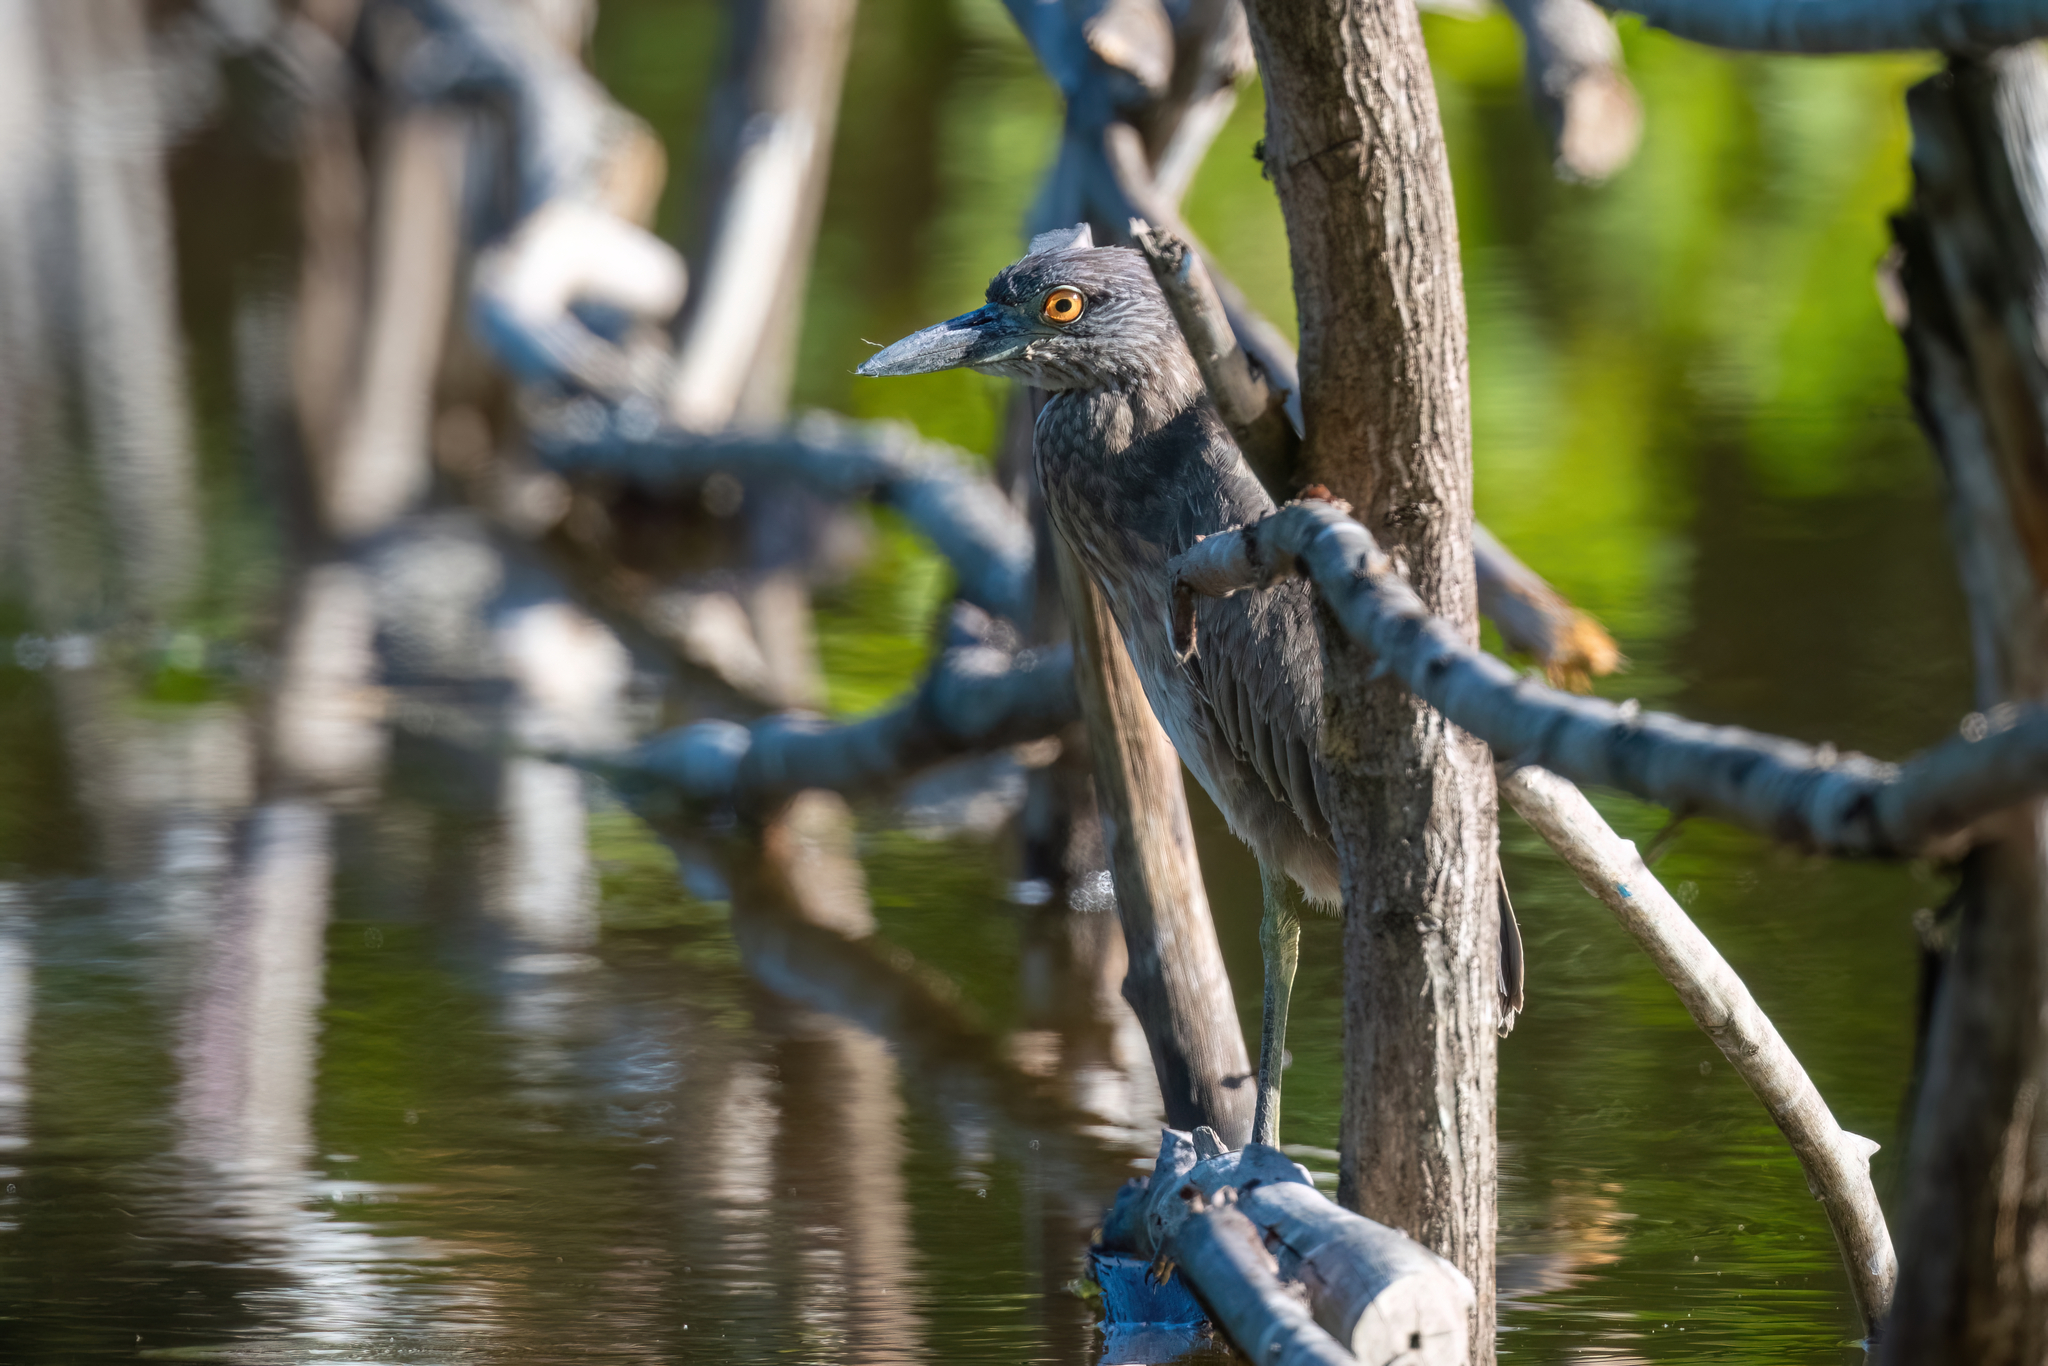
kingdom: Animalia
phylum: Chordata
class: Aves
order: Pelecaniformes
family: Ardeidae
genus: Nyctanassa
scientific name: Nyctanassa violacea
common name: Yellow-crowned night heron
